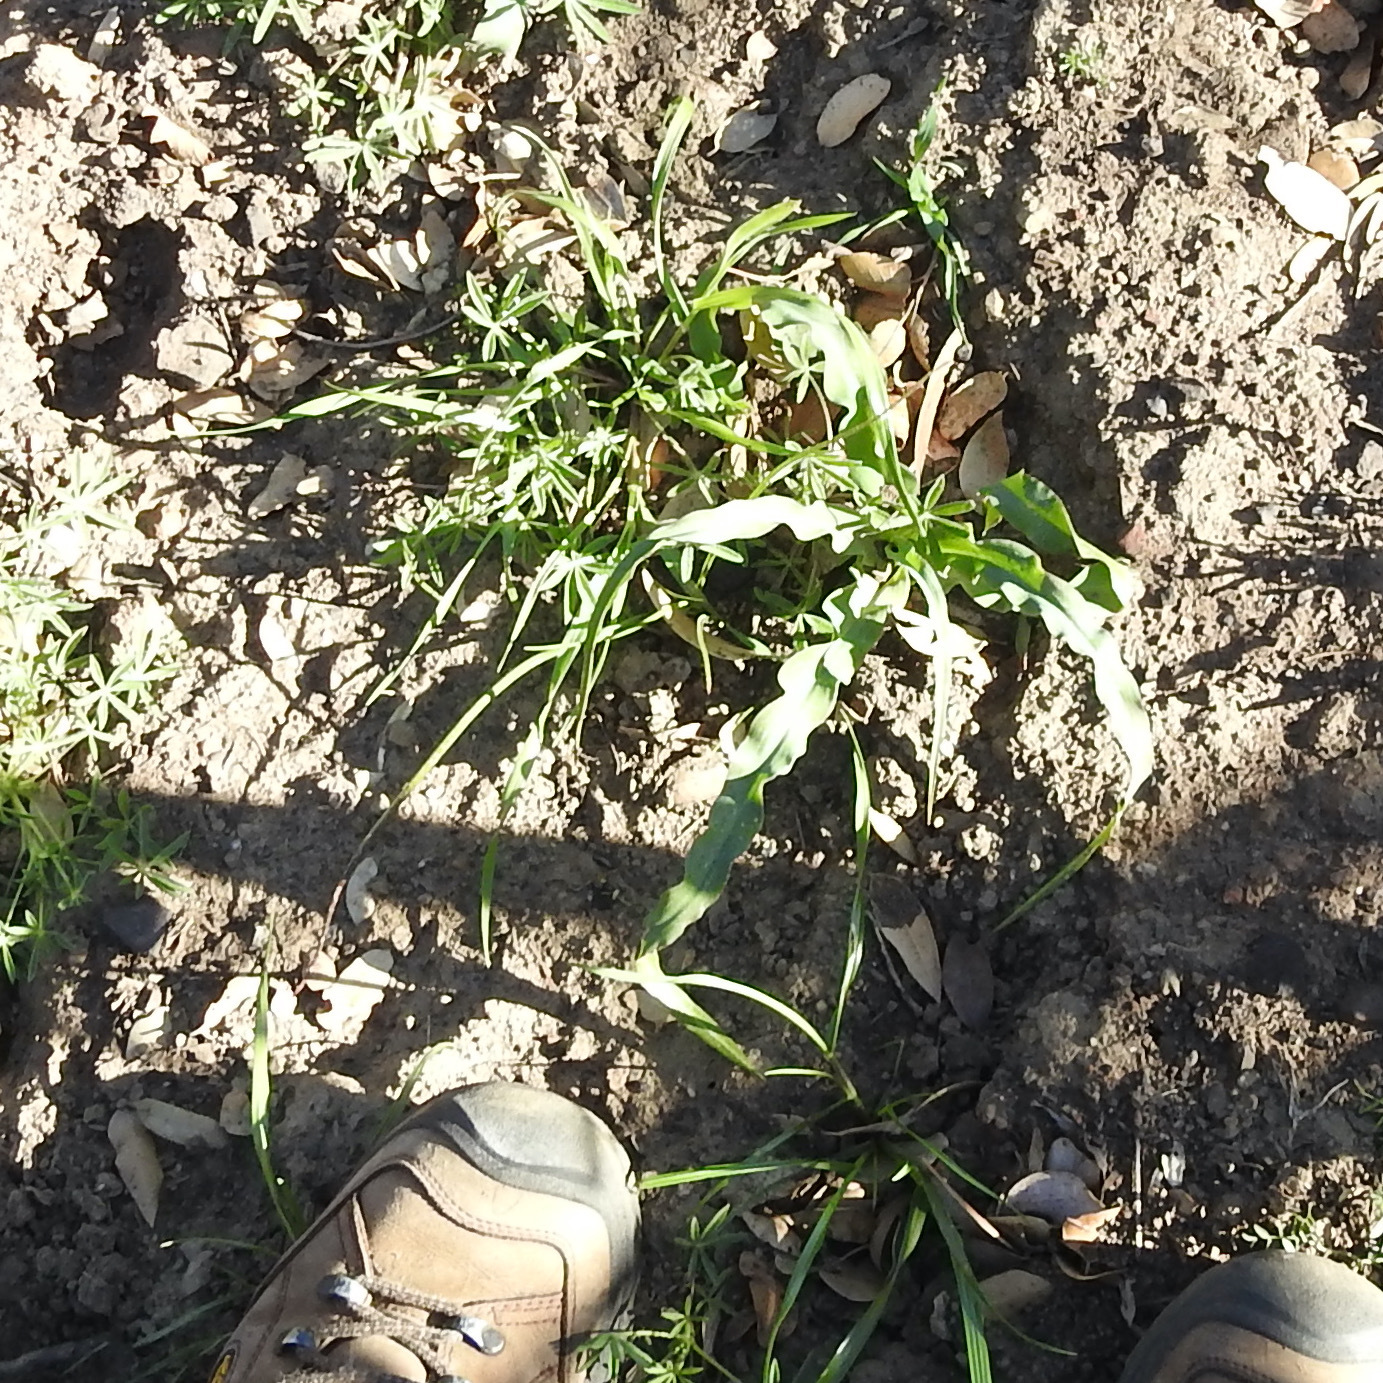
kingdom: Plantae
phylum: Tracheophyta
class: Liliopsida
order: Asparagales
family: Asparagaceae
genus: Chlorogalum
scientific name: Chlorogalum pomeridianum
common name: Amole
